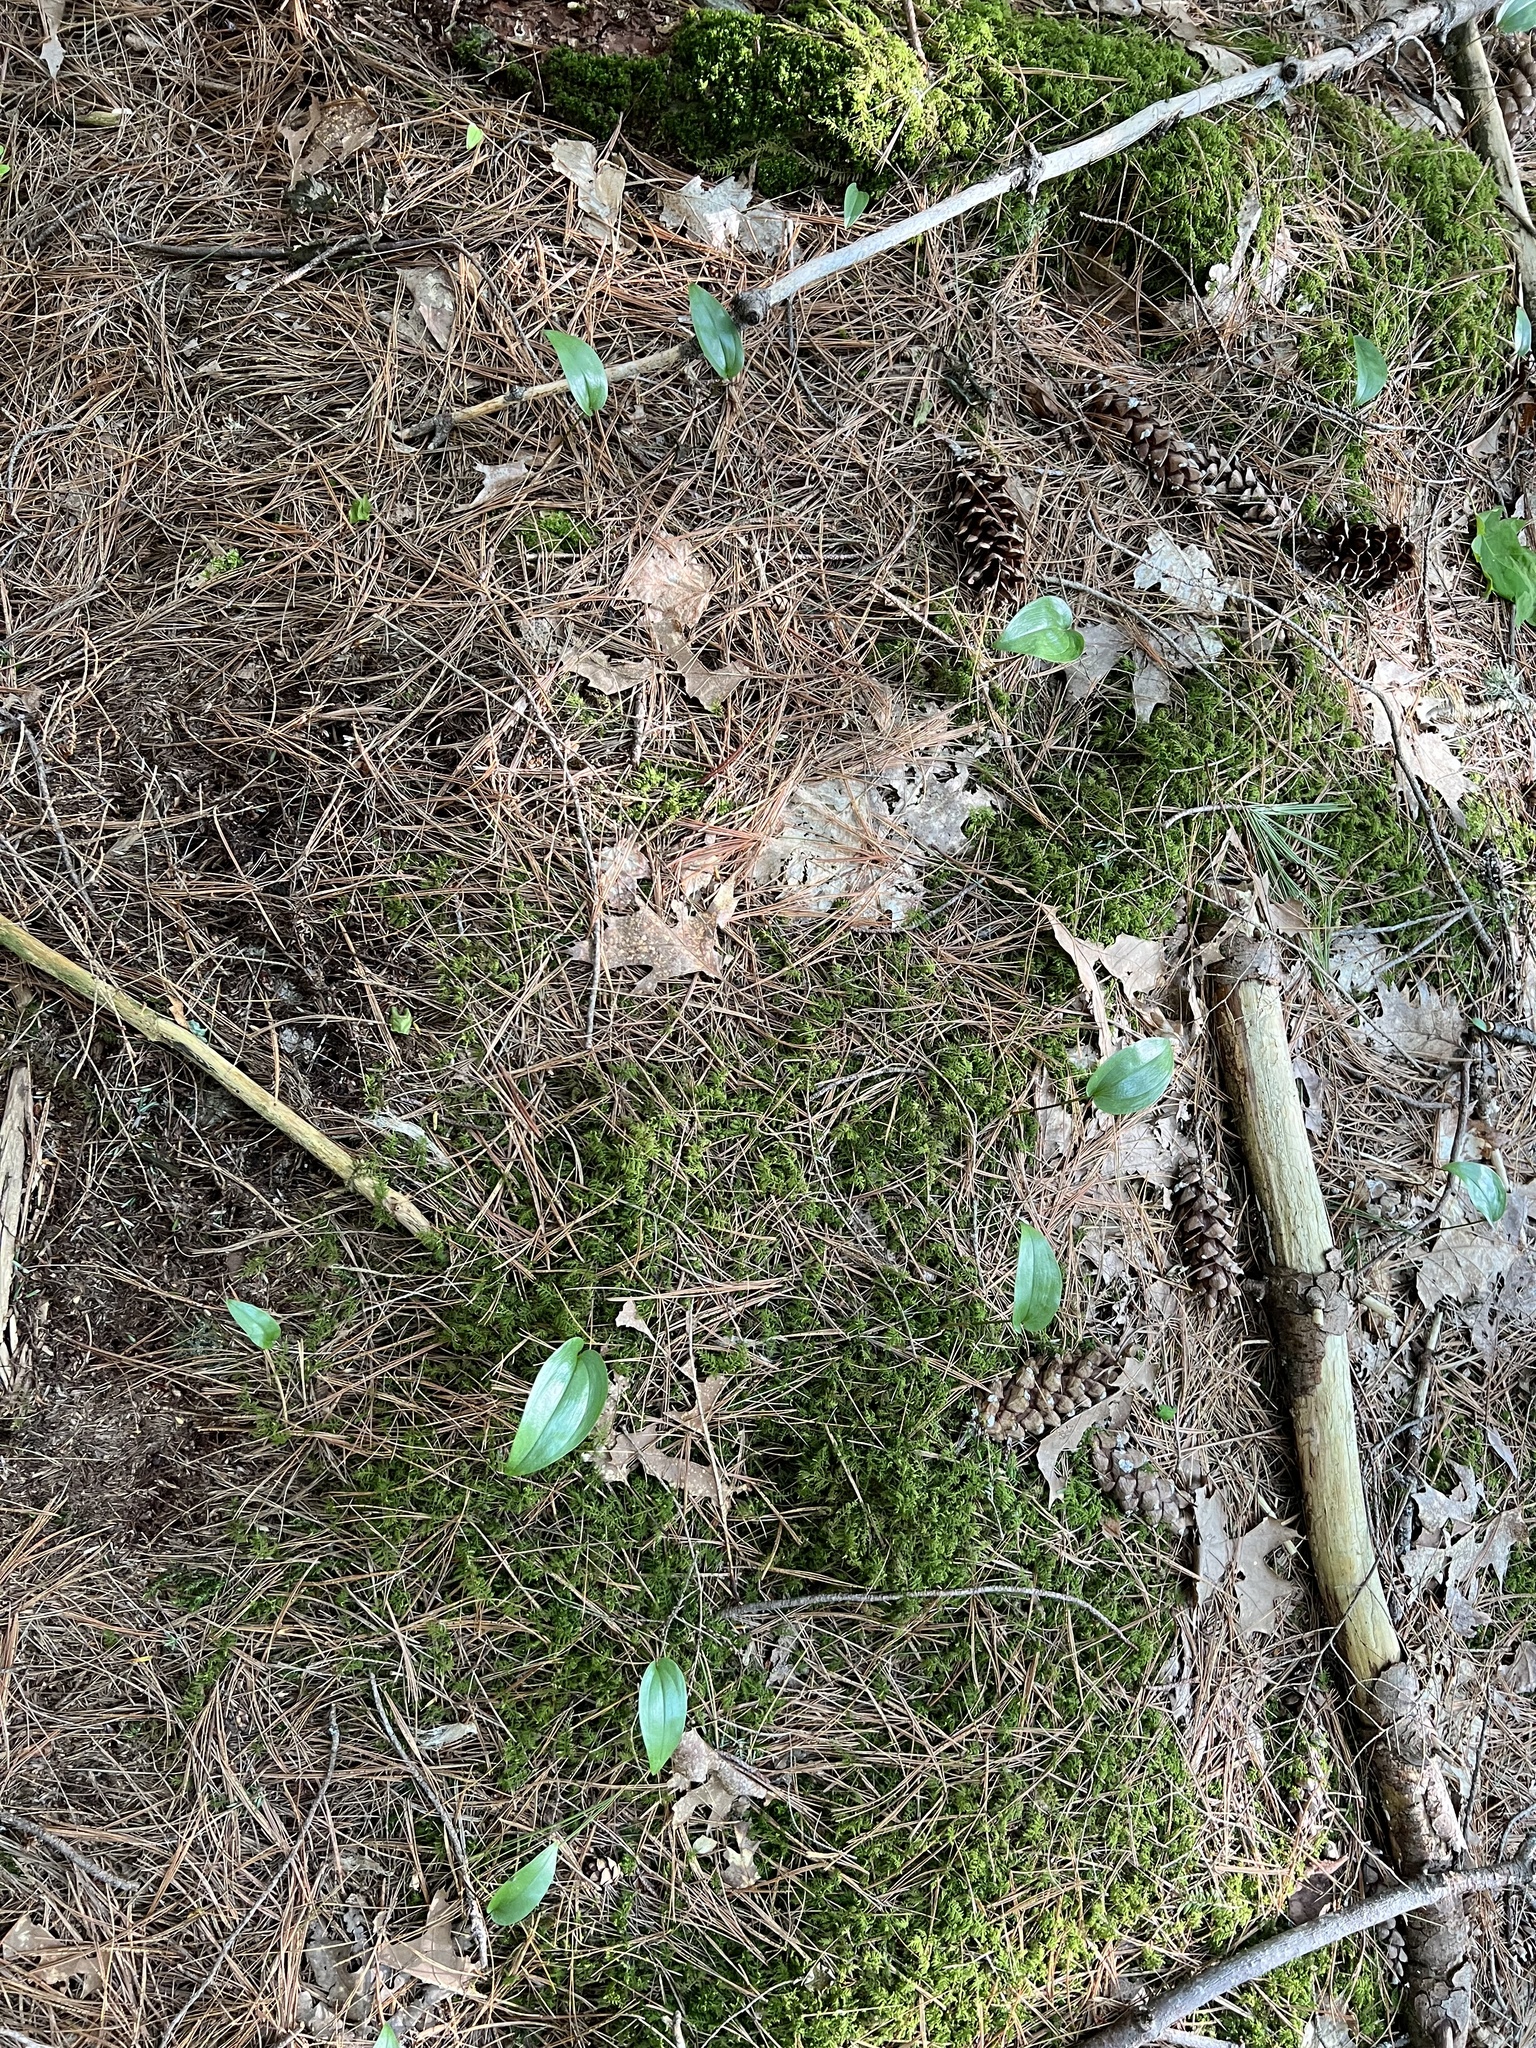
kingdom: Plantae
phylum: Tracheophyta
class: Liliopsida
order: Asparagales
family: Asparagaceae
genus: Maianthemum
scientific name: Maianthemum canadense
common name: False lily-of-the-valley
